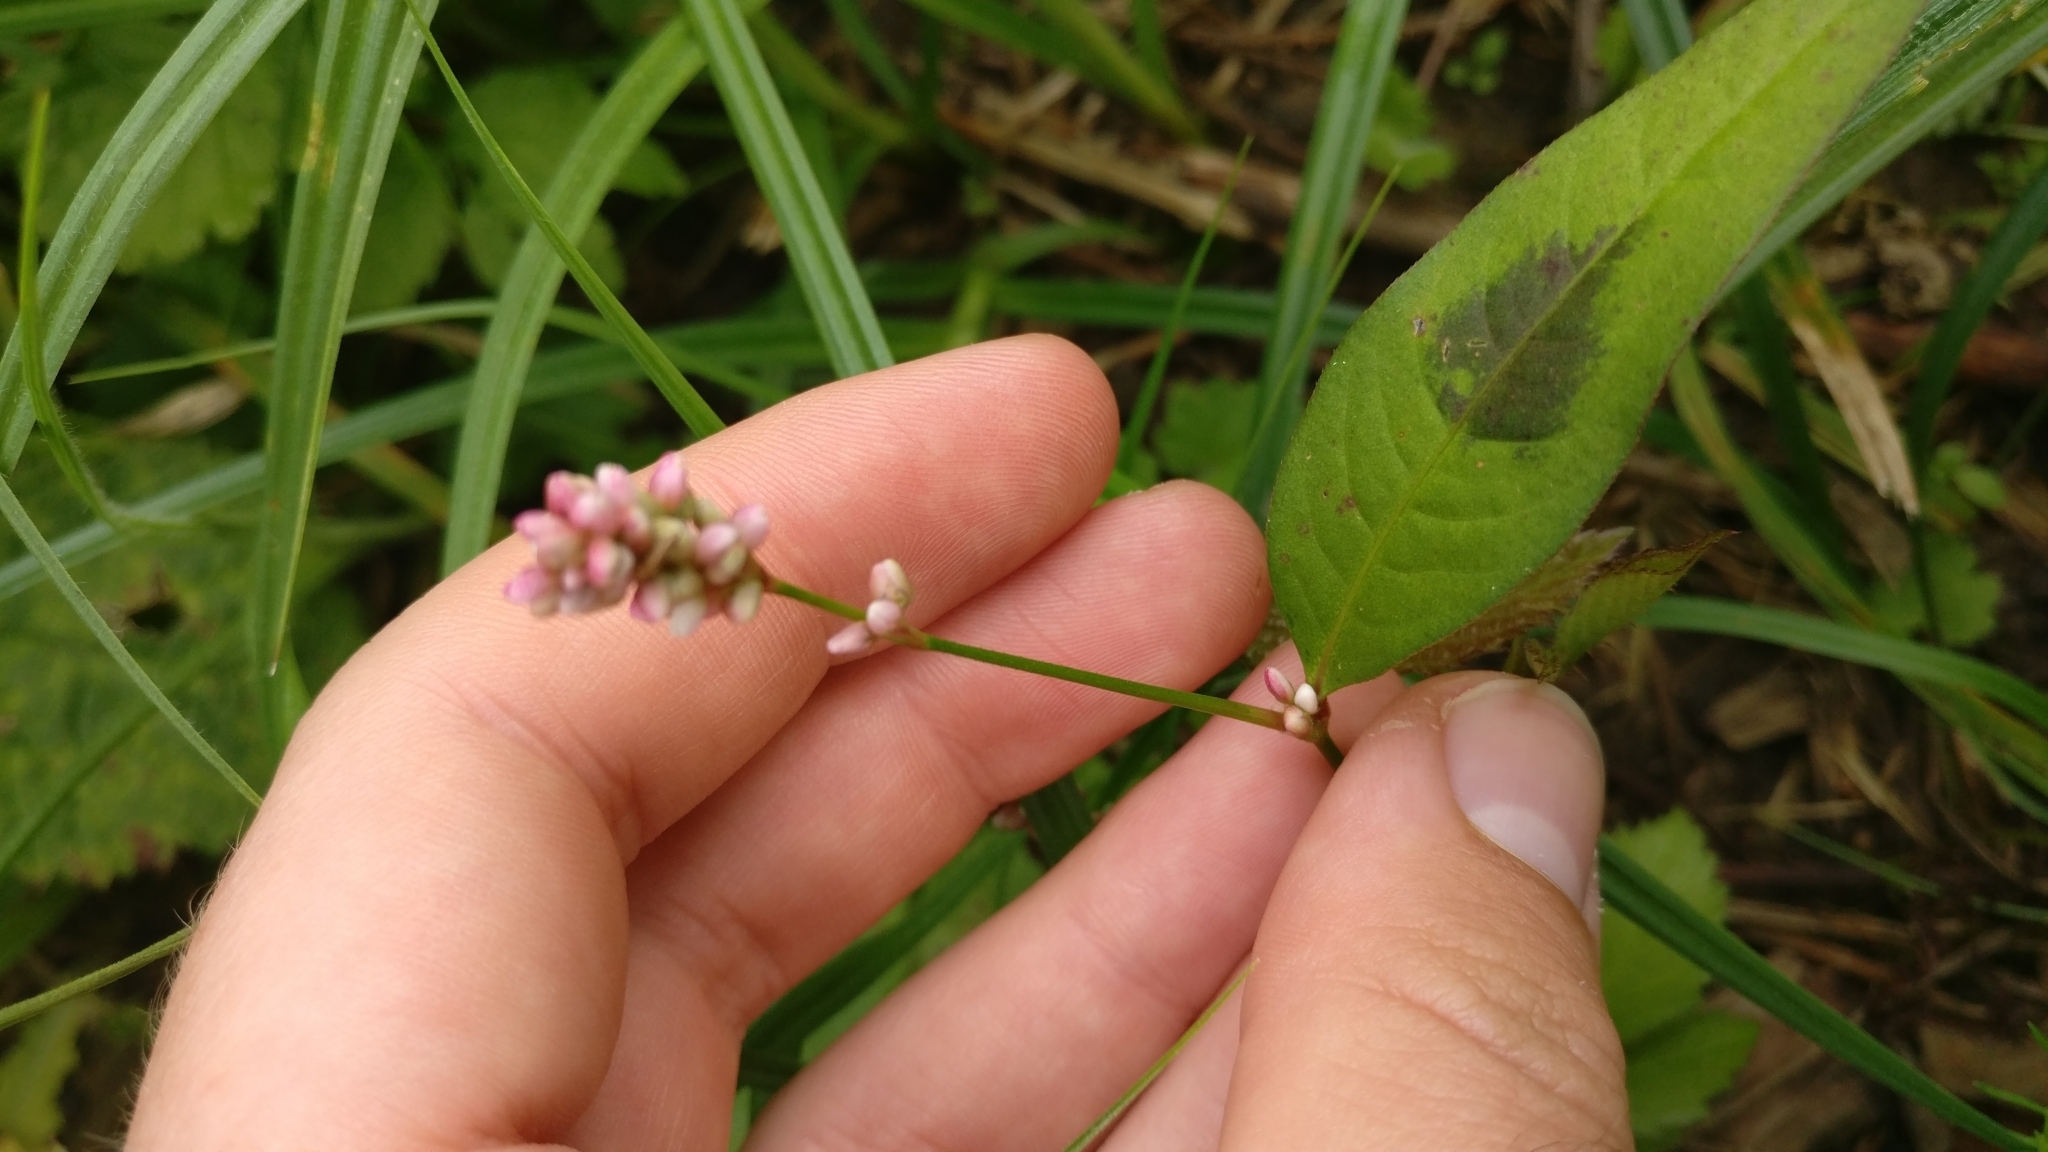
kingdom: Plantae
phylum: Tracheophyta
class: Magnoliopsida
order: Caryophyllales
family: Polygonaceae
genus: Persicaria
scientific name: Persicaria maculosa
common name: Redshank
